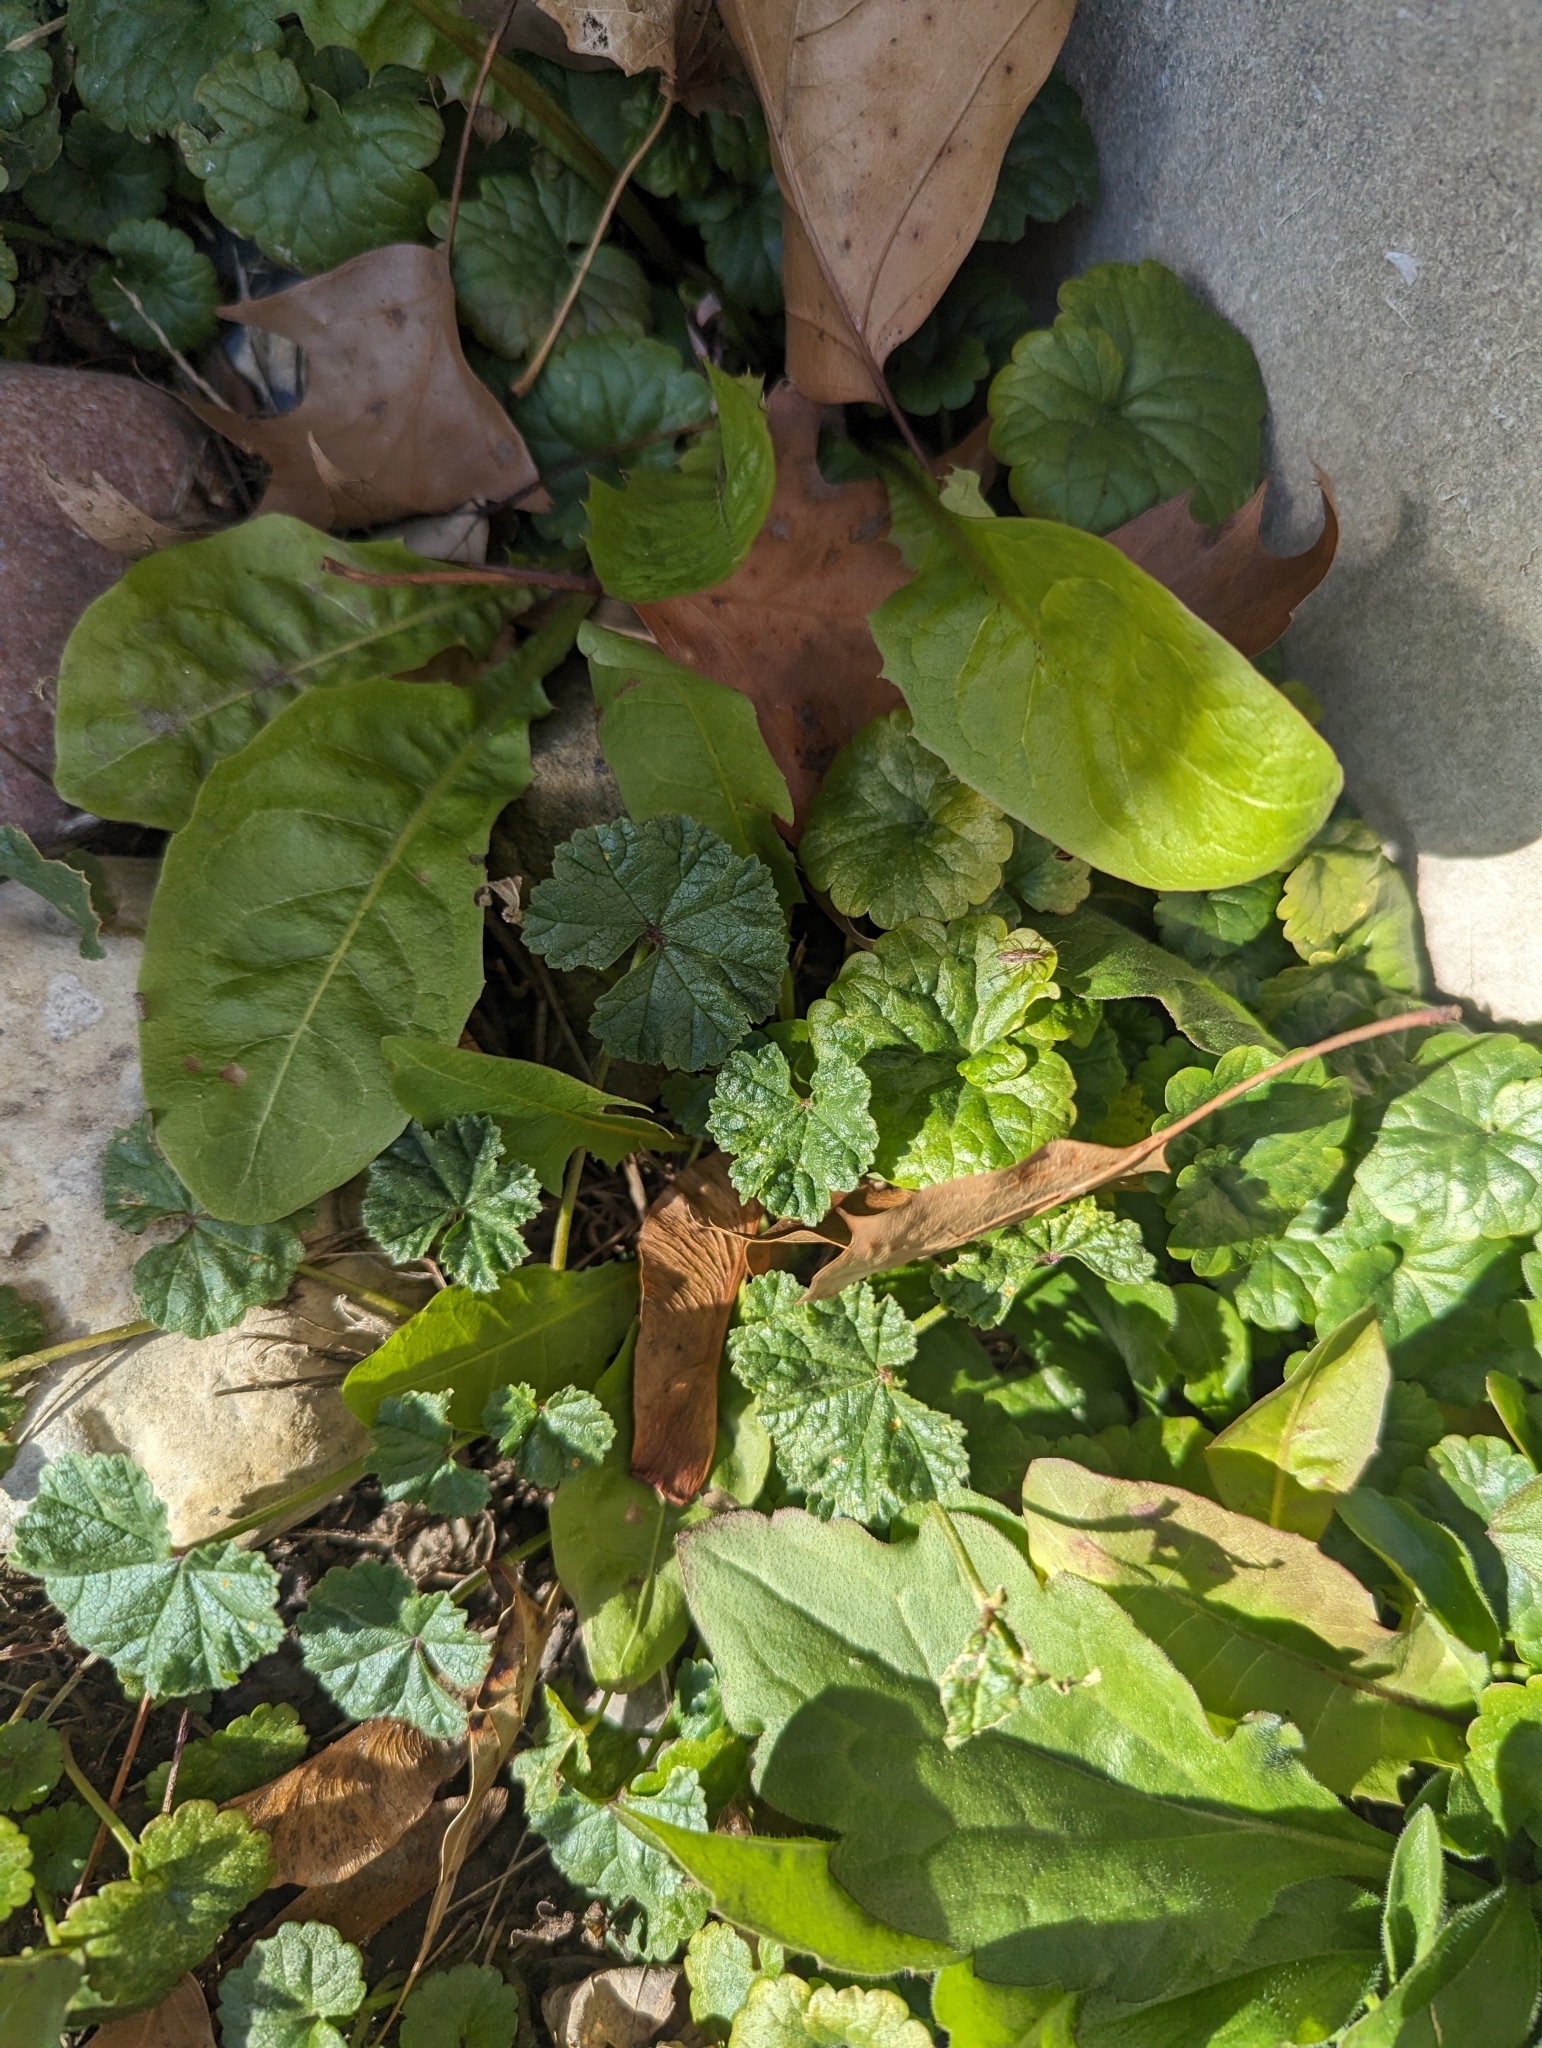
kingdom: Plantae
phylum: Tracheophyta
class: Magnoliopsida
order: Malvales
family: Malvaceae
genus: Malva
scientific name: Malva neglecta
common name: Common mallow
